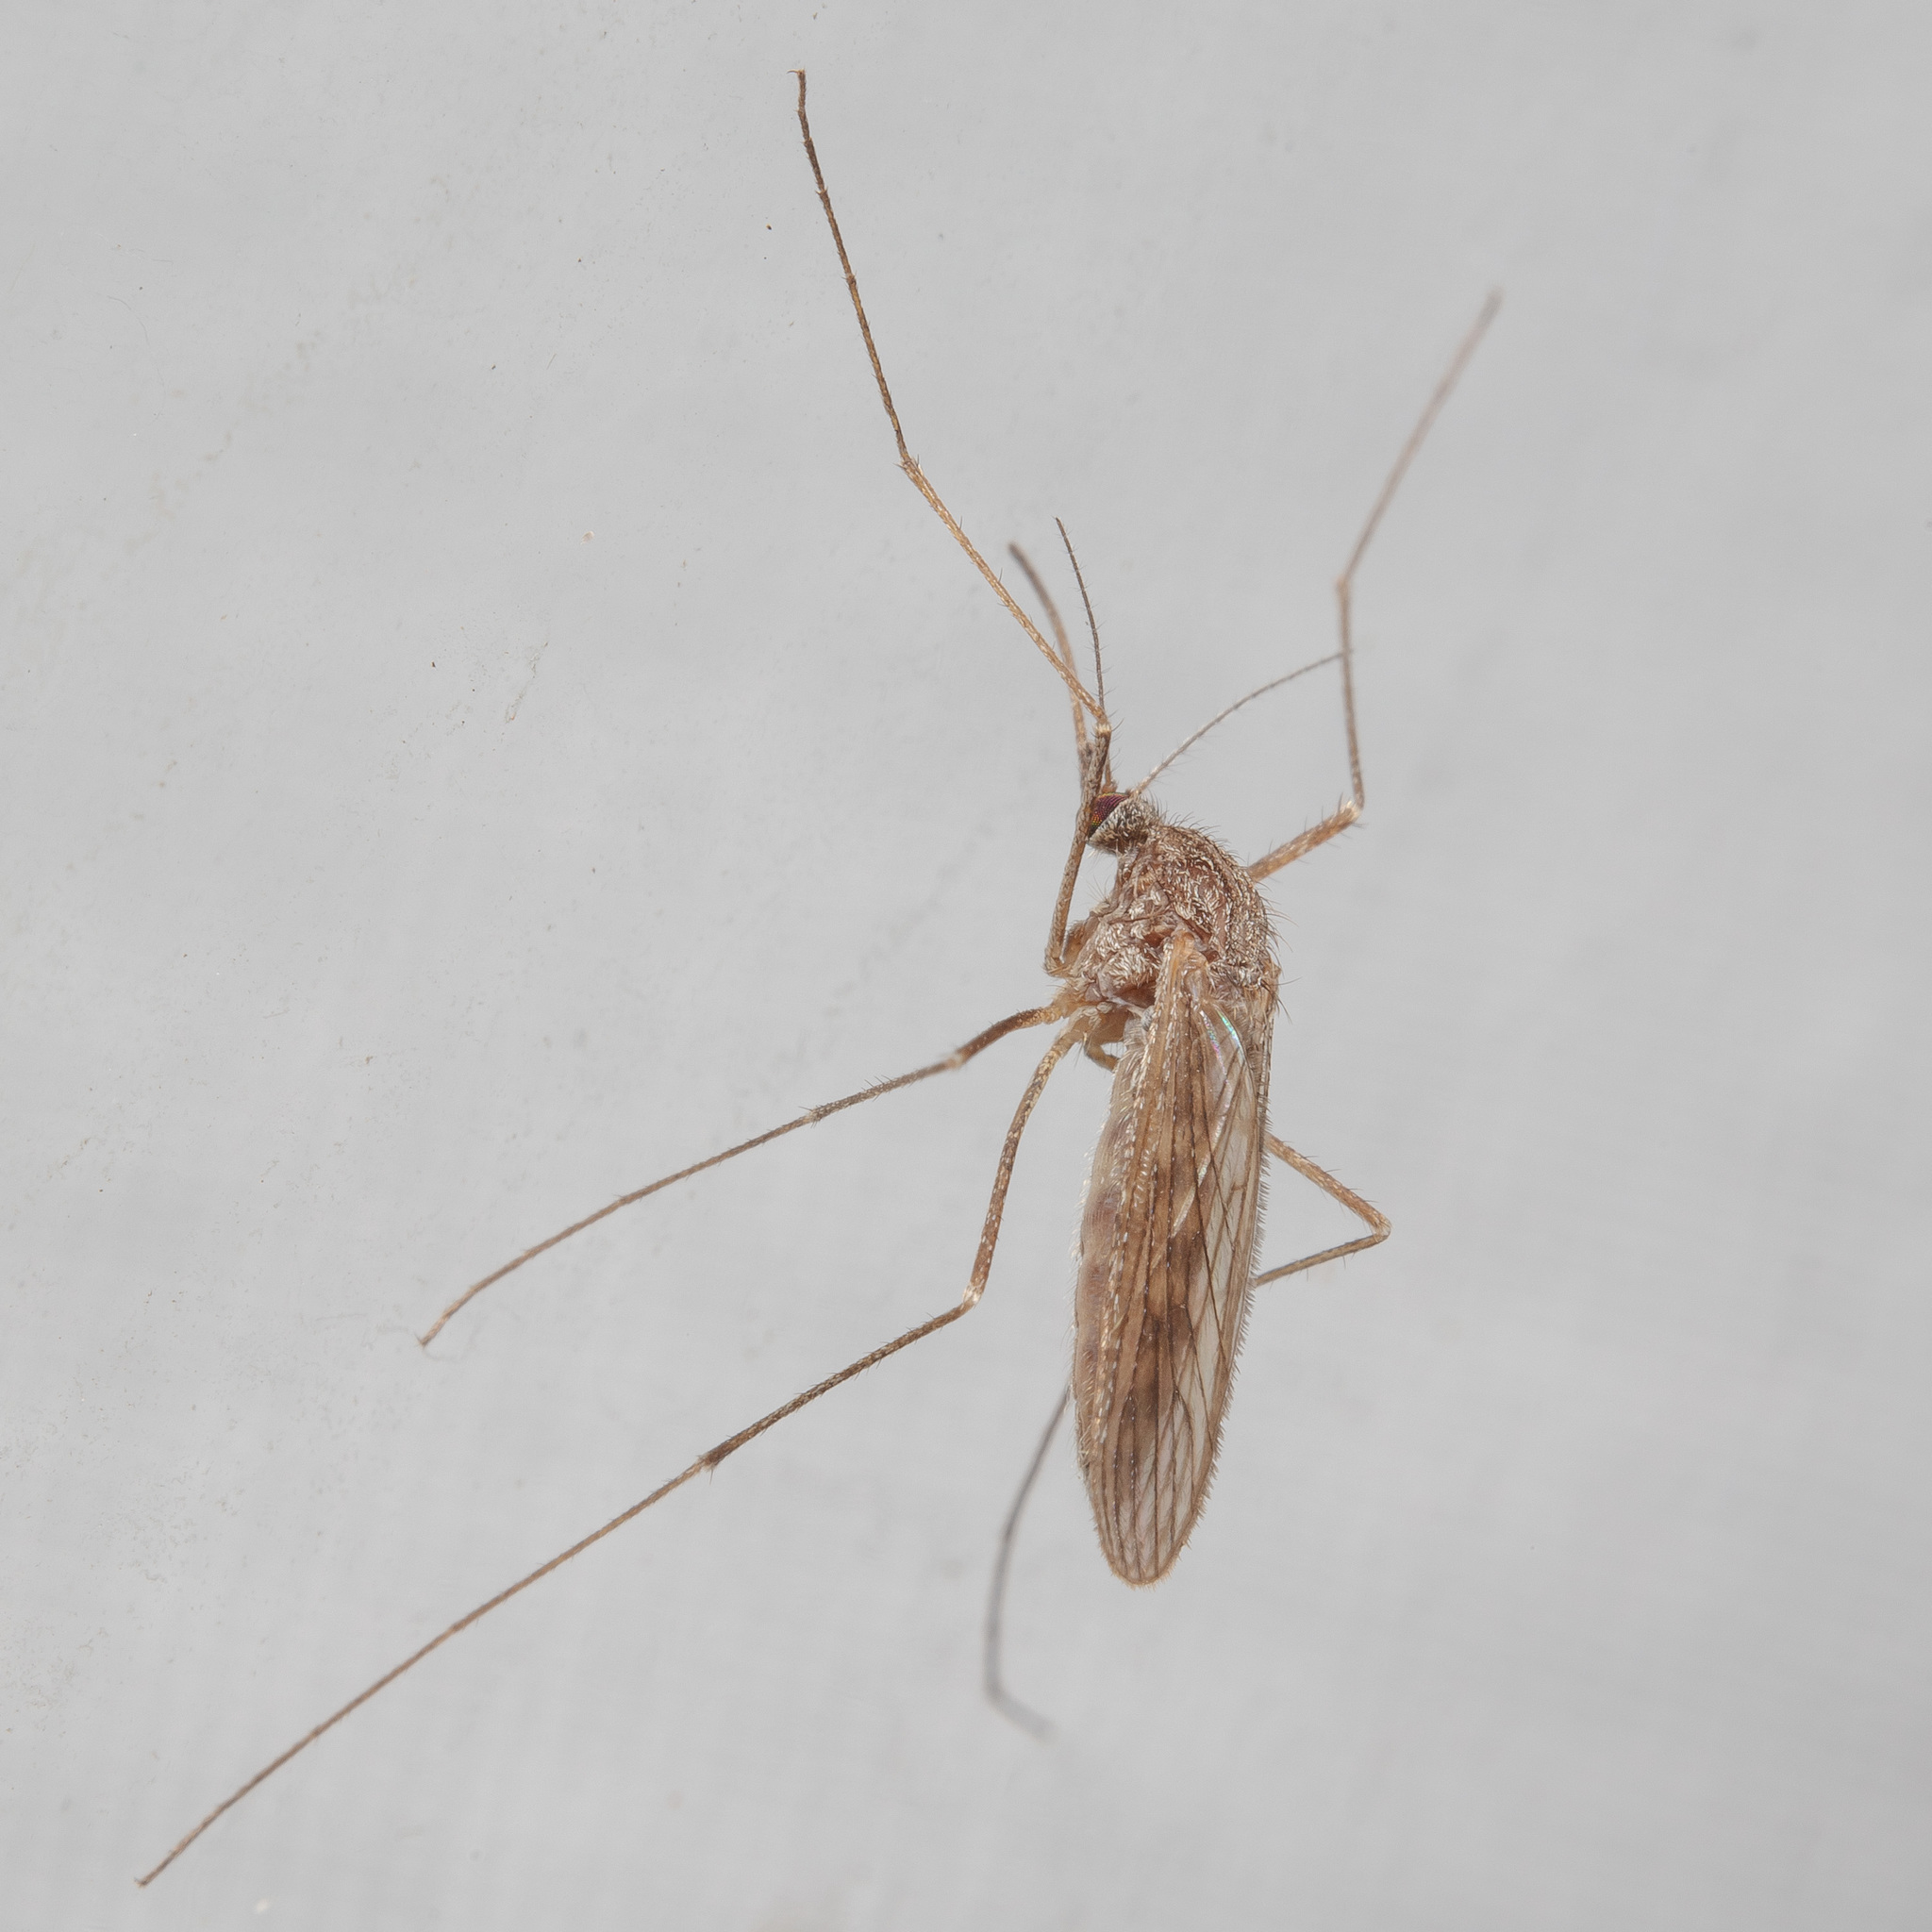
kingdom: Animalia
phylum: Arthropoda
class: Insecta
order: Diptera
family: Culicidae
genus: Culiseta
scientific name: Culiseta inornata
